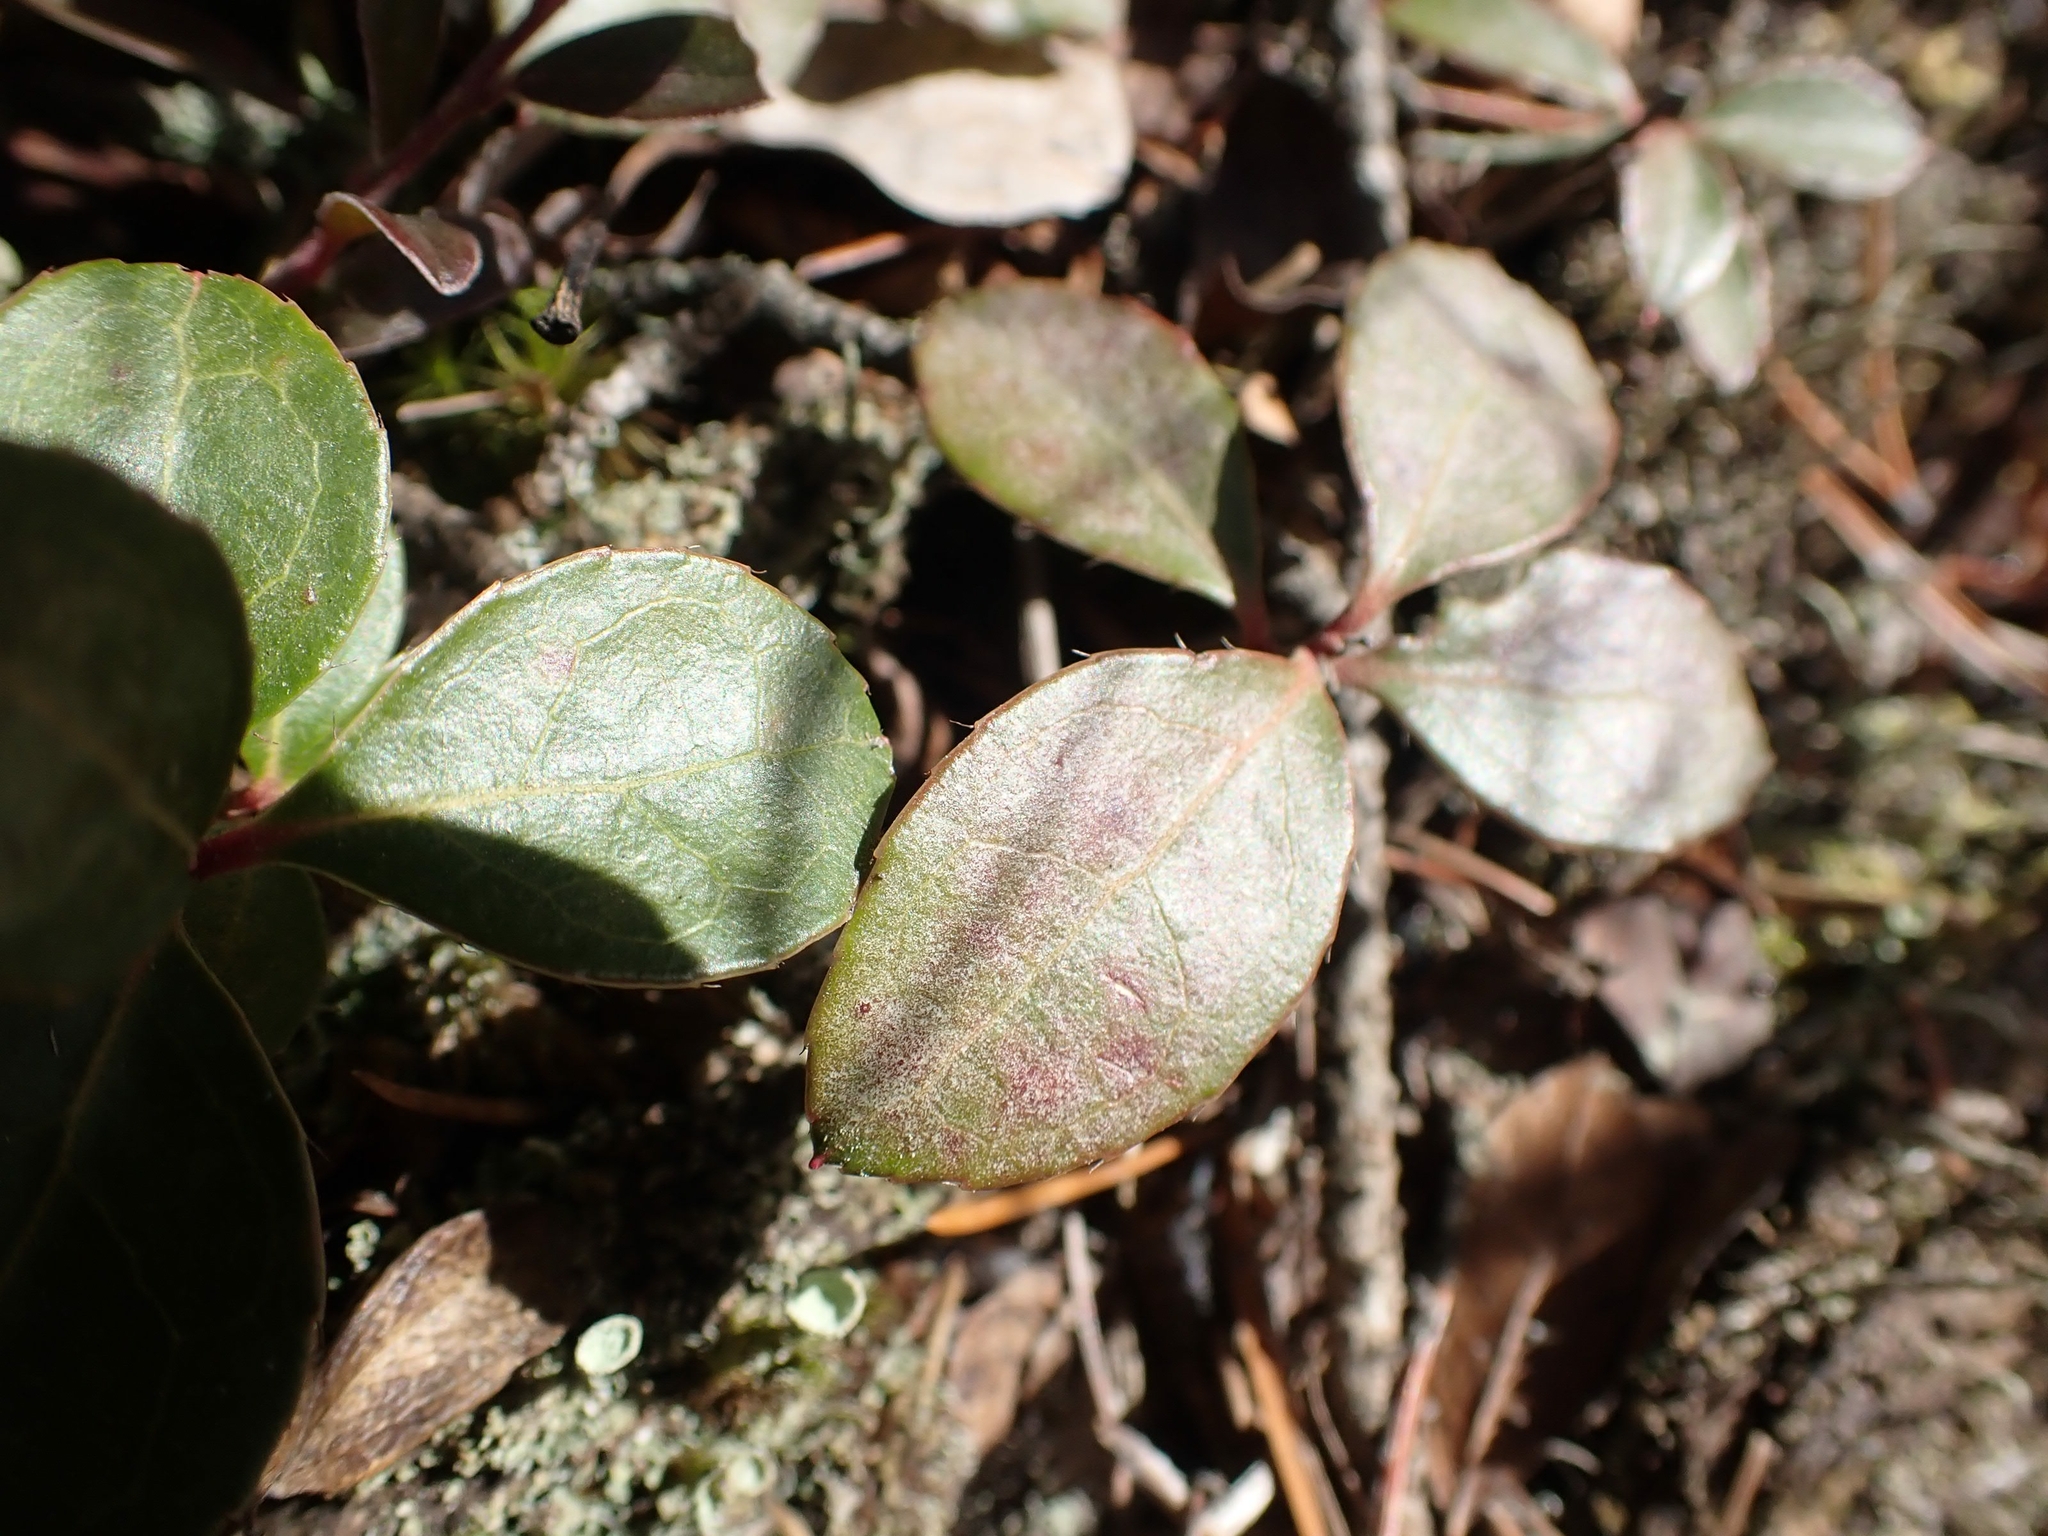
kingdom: Plantae
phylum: Tracheophyta
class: Magnoliopsida
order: Ericales
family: Ericaceae
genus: Gaultheria
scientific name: Gaultheria procumbens
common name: Checkerberry
